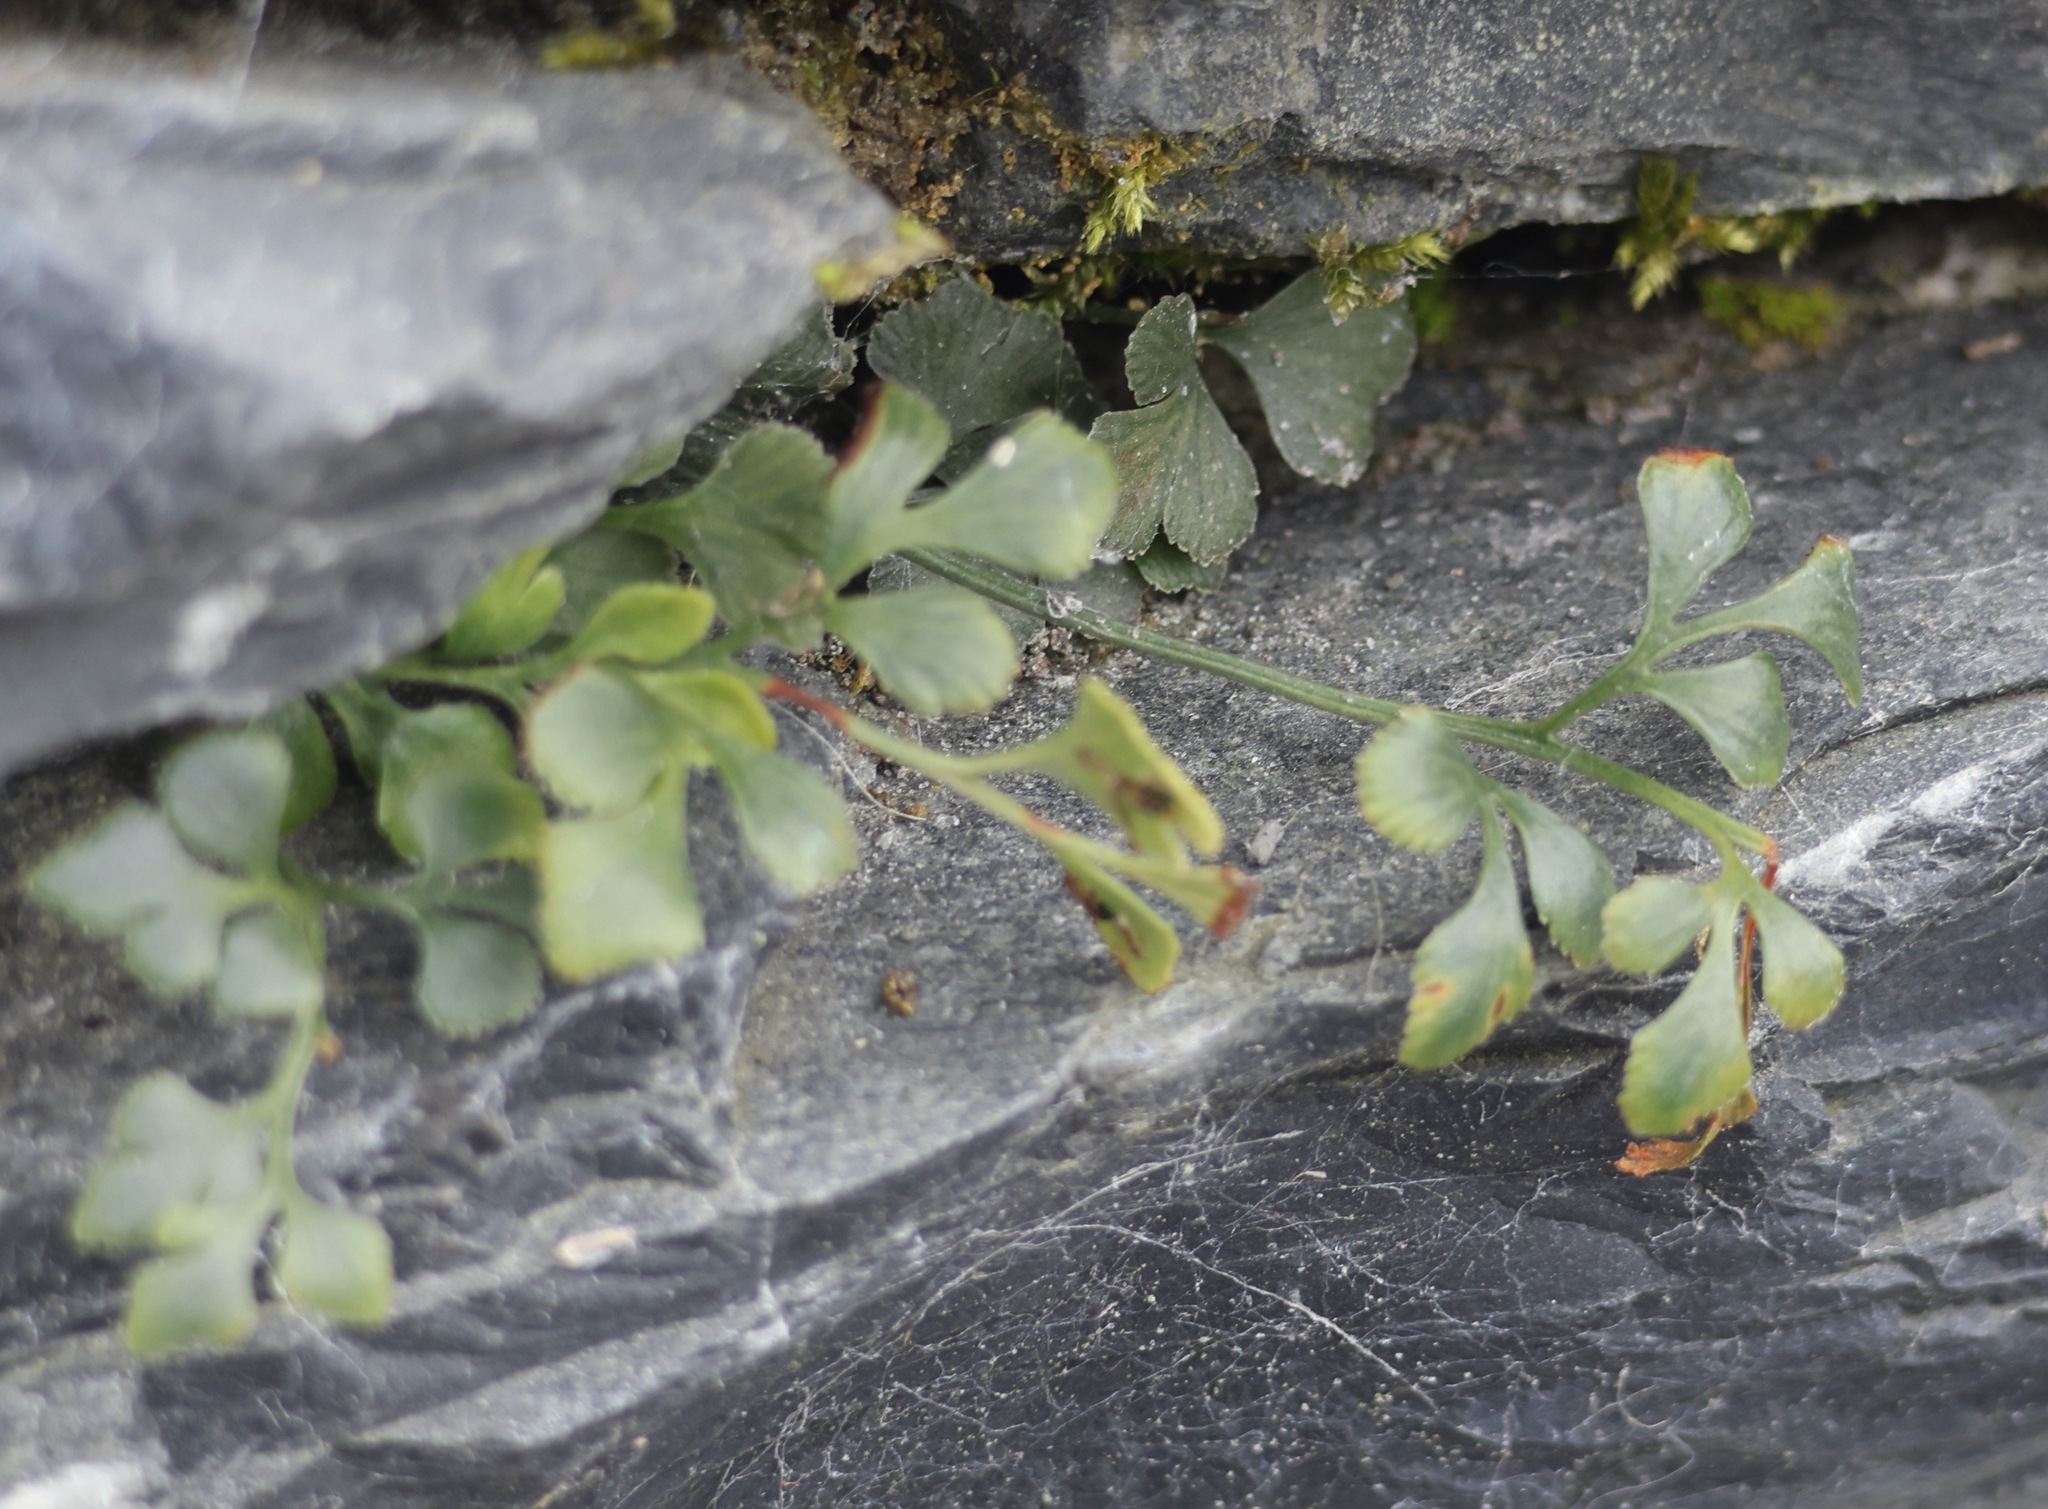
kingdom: Plantae
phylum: Tracheophyta
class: Polypodiopsida
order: Polypodiales
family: Aspleniaceae
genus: Asplenium
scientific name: Asplenium ruta-muraria
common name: Wall-rue
